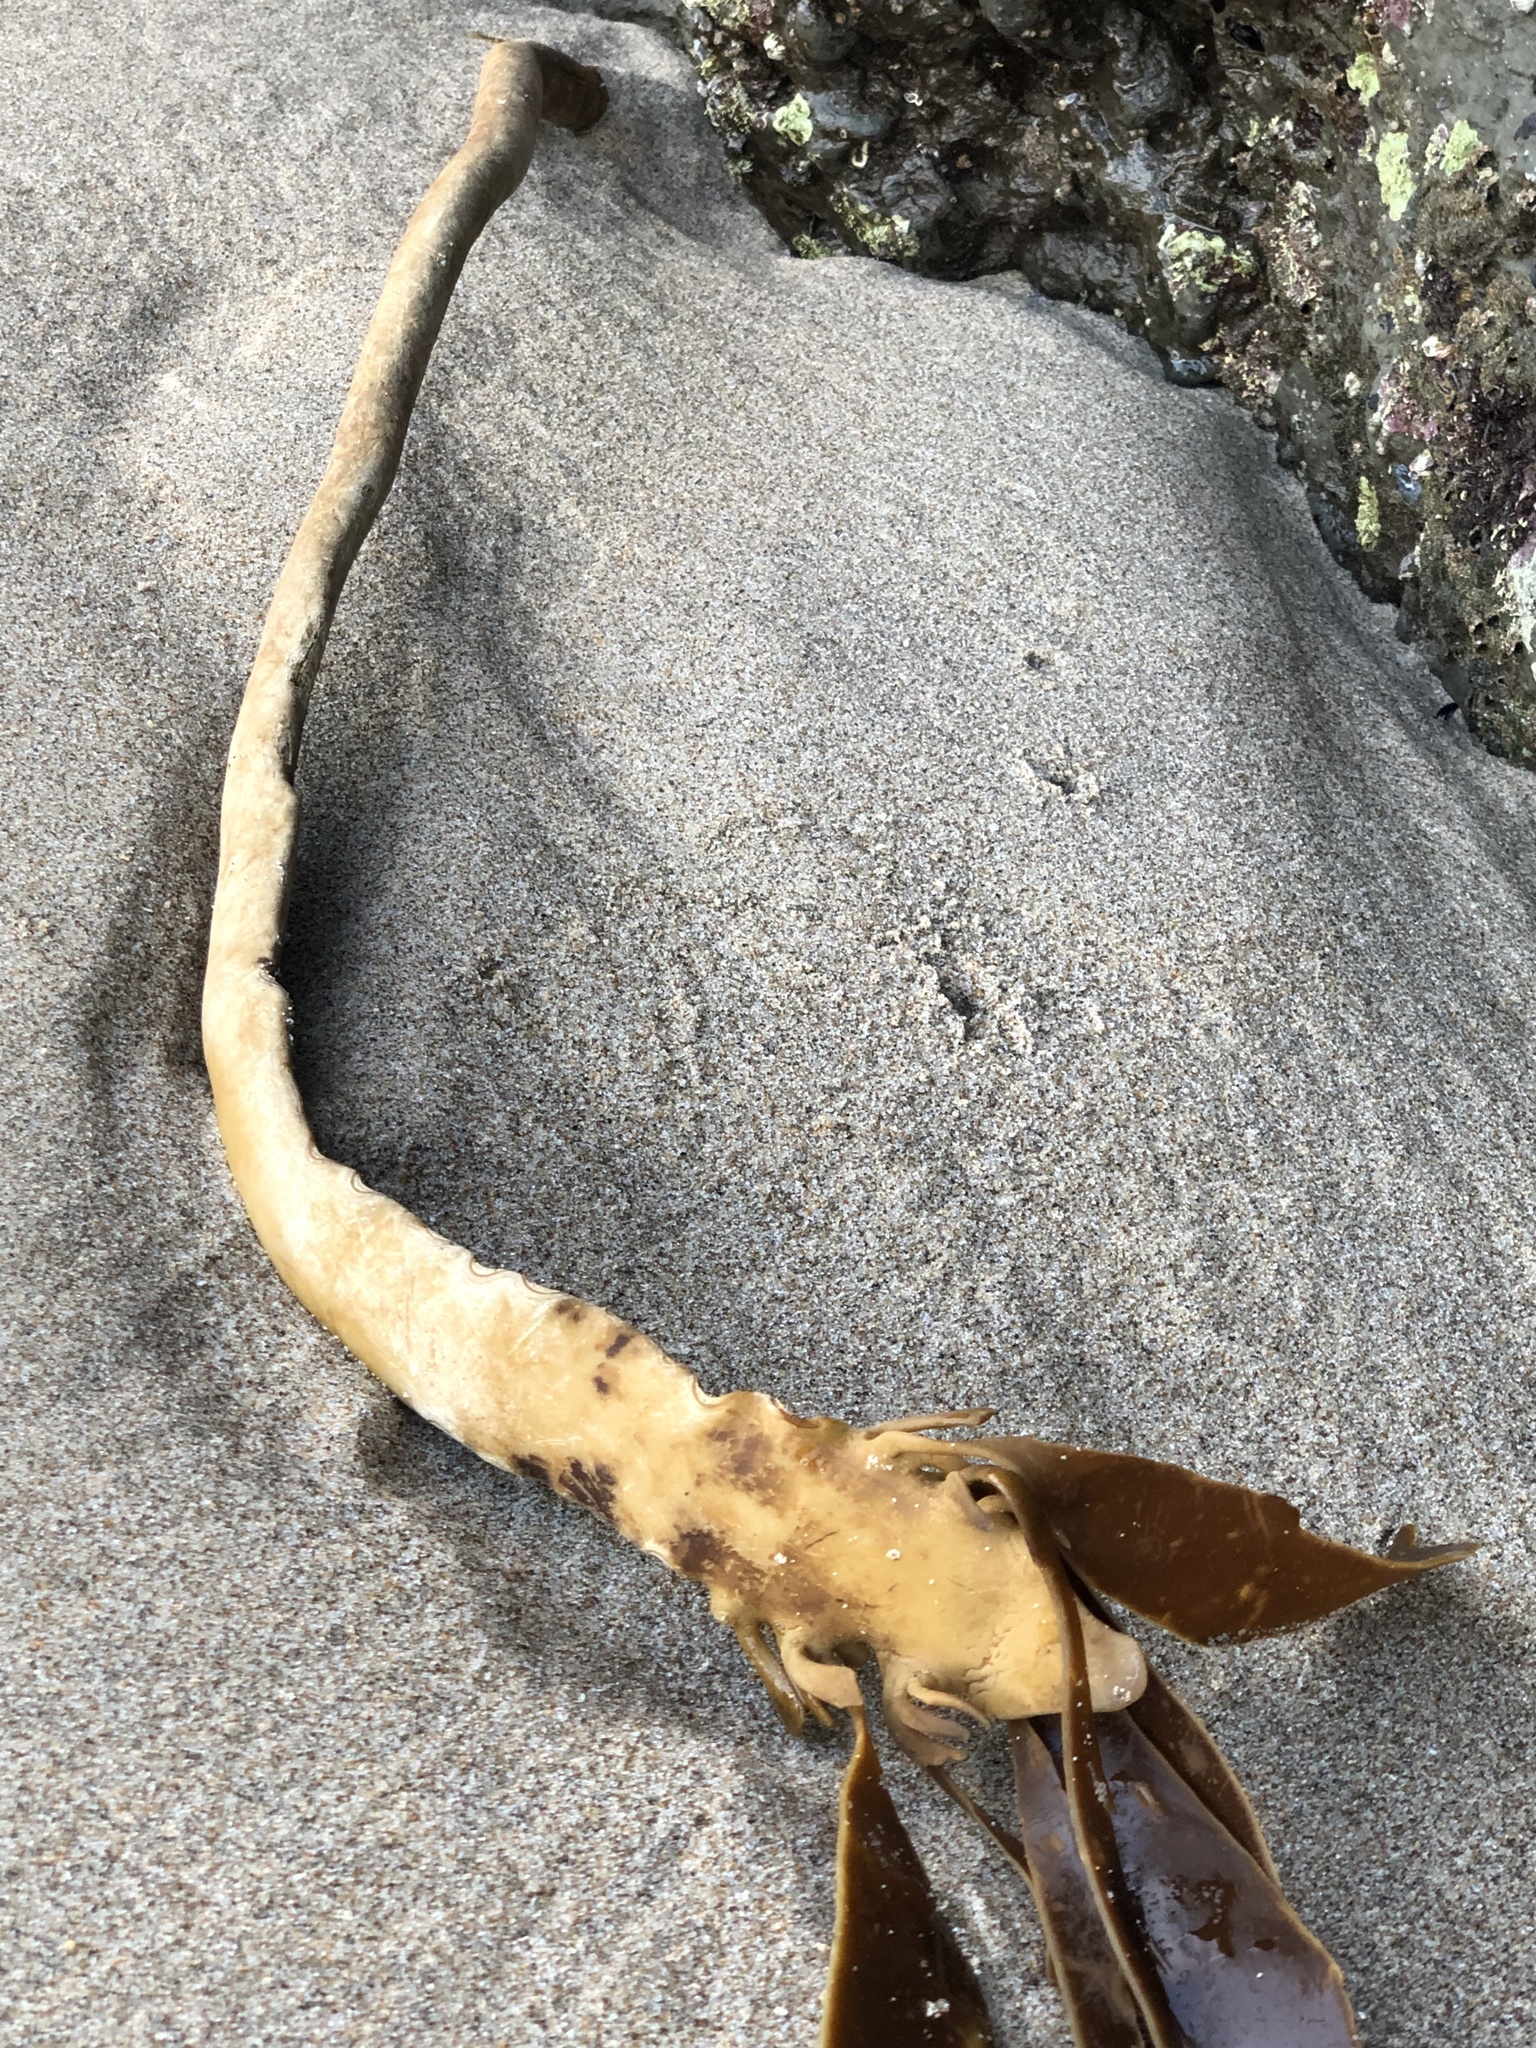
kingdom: Chromista
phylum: Ochrophyta
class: Phaeophyceae
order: Laminariales
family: Alariaceae
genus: Pterygophora
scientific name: Pterygophora californica
